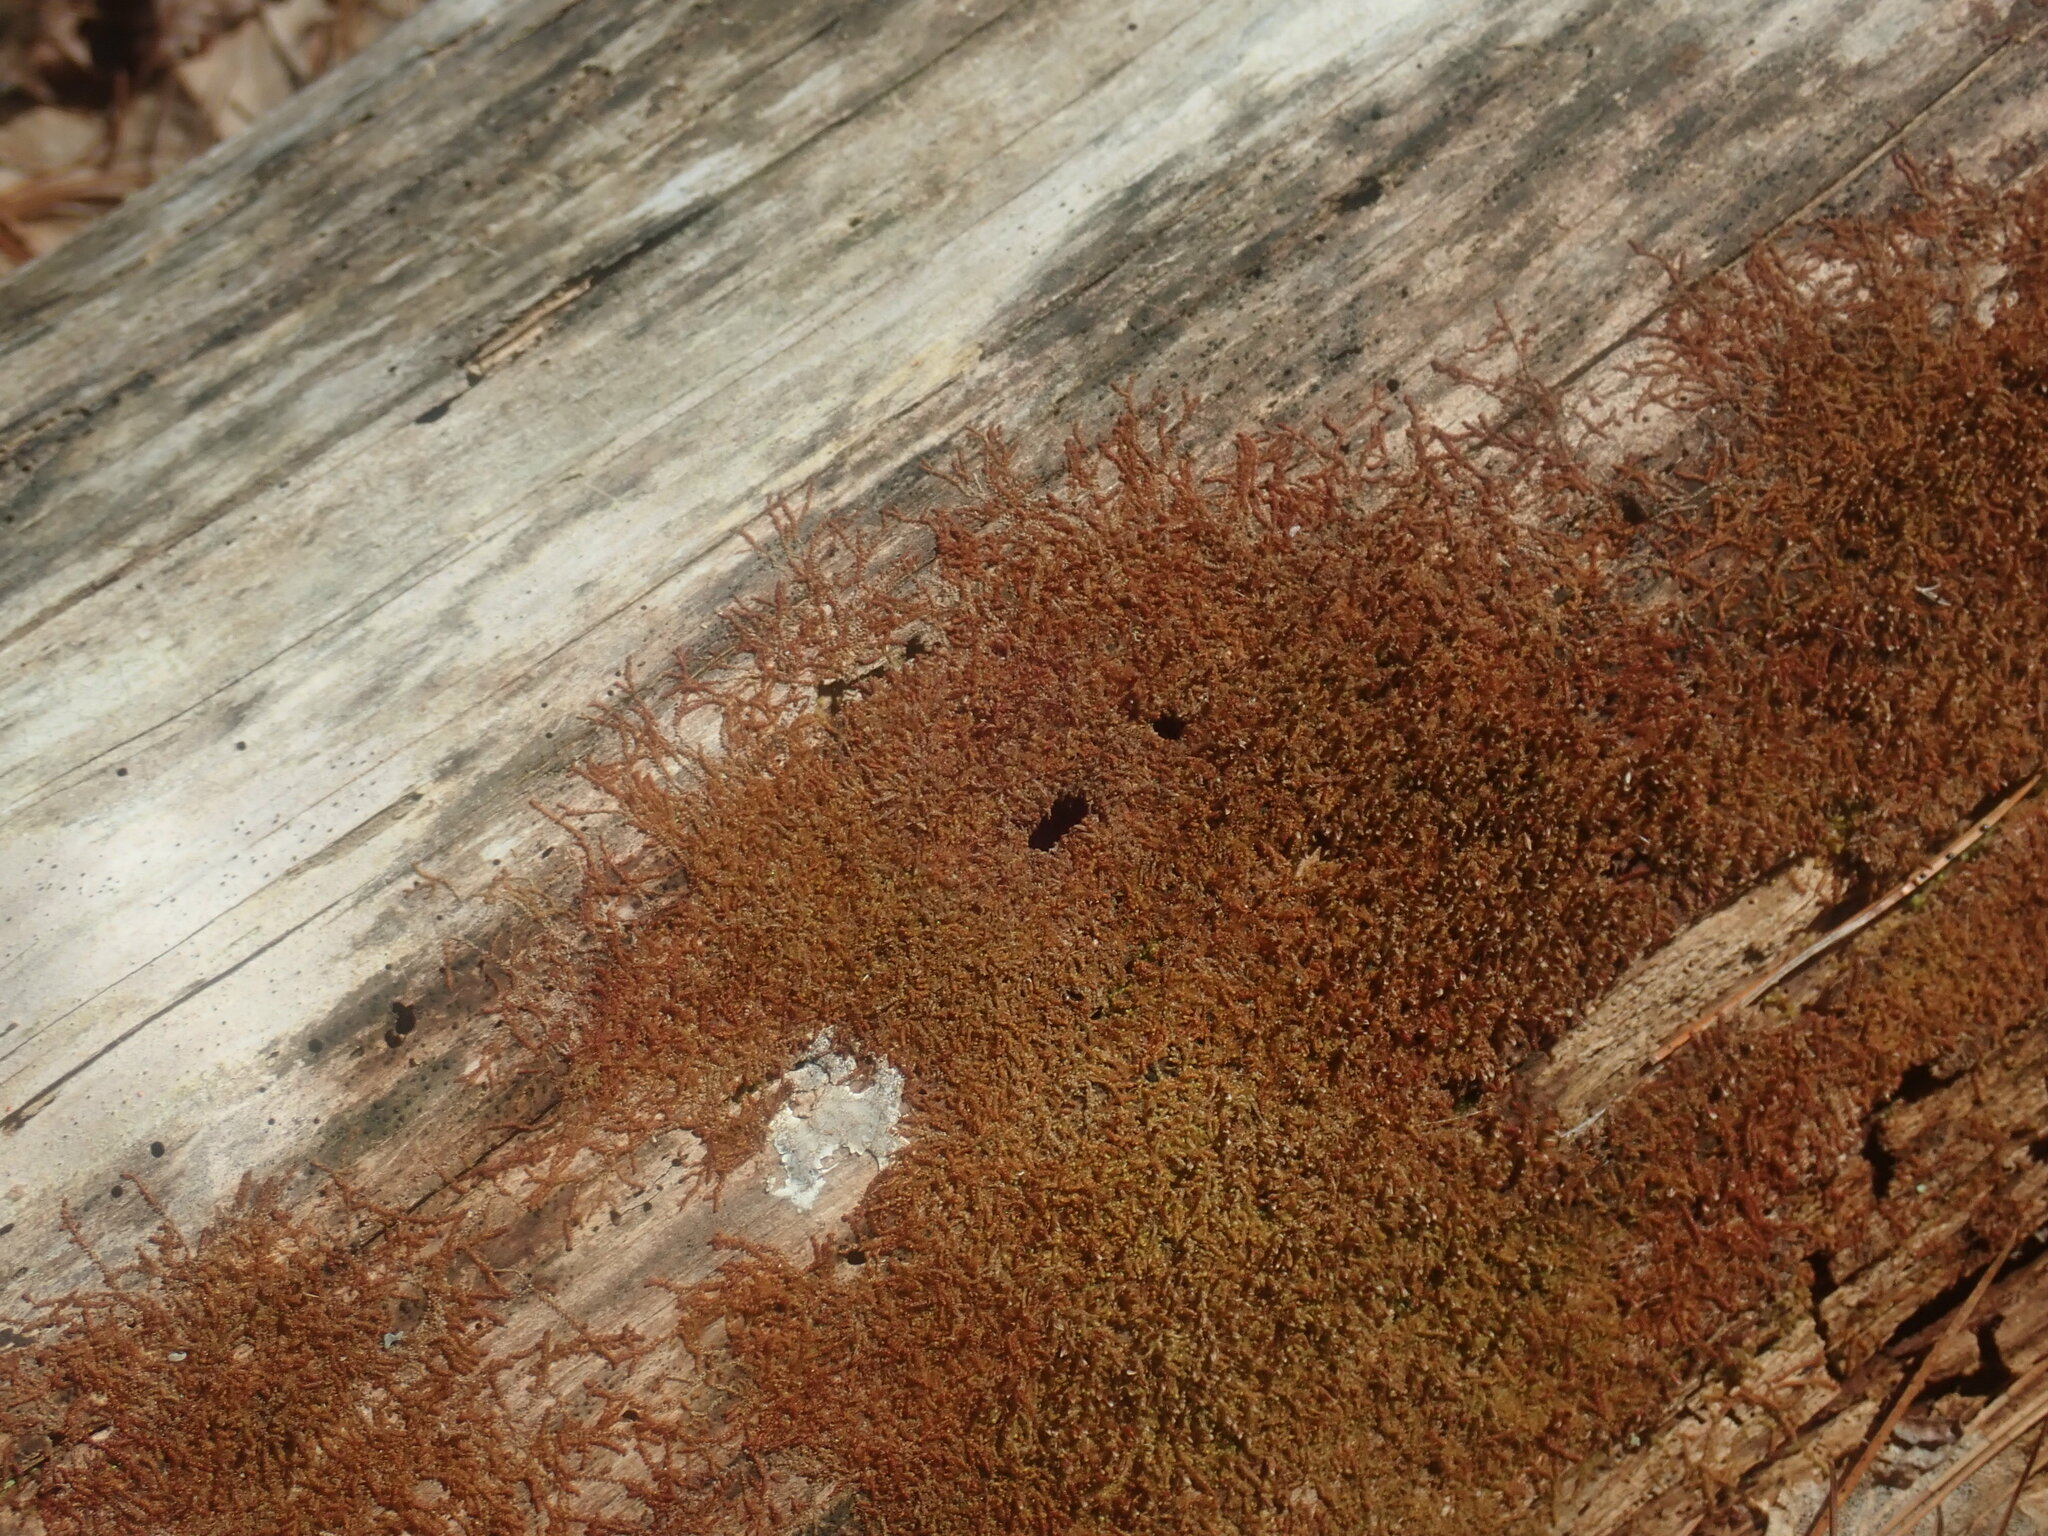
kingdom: Plantae
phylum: Marchantiophyta
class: Jungermanniopsida
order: Jungermanniales
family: Cephaloziaceae
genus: Nowellia
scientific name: Nowellia curvifolia
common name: Wood rustwort
